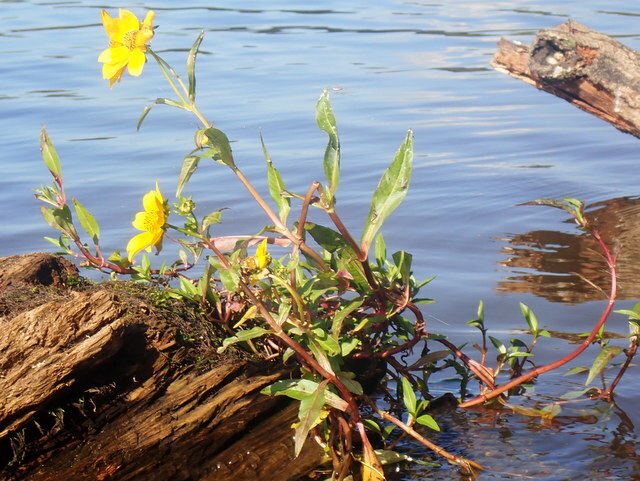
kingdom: Plantae
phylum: Tracheophyta
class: Magnoliopsida
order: Asterales
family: Asteraceae
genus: Bidens
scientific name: Bidens laevis
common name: Larger bur-marigold
